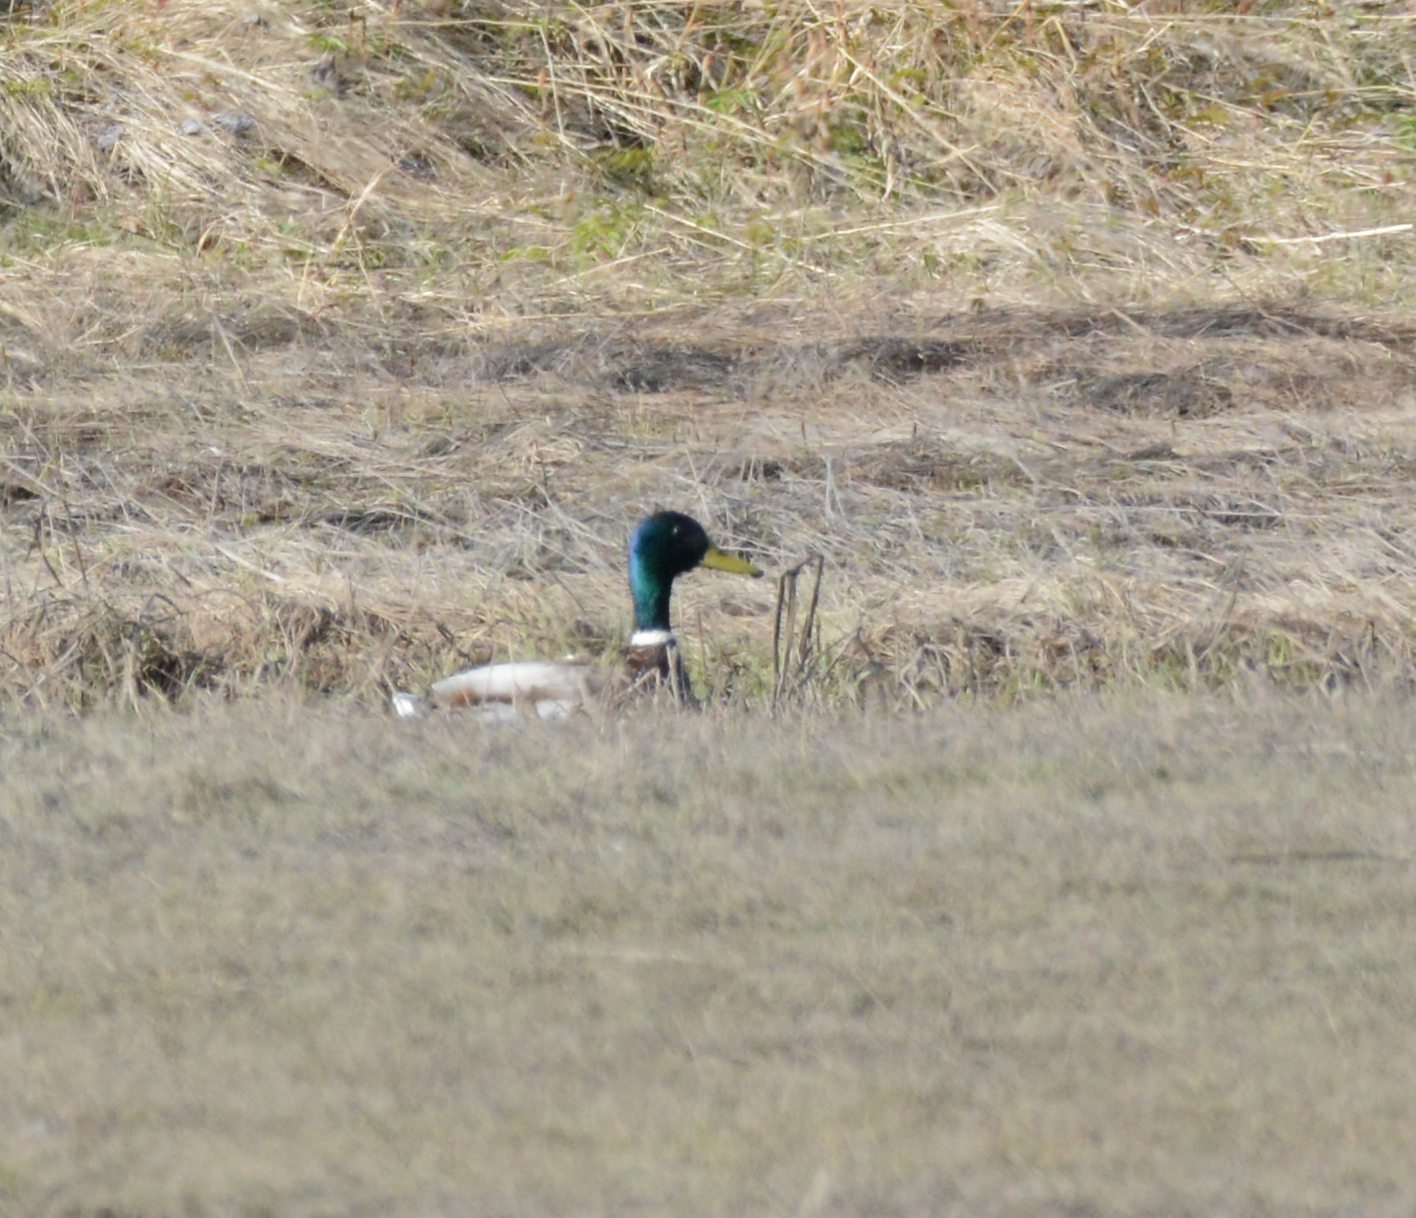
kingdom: Animalia
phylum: Chordata
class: Aves
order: Anseriformes
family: Anatidae
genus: Anas
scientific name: Anas platyrhynchos
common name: Mallard
